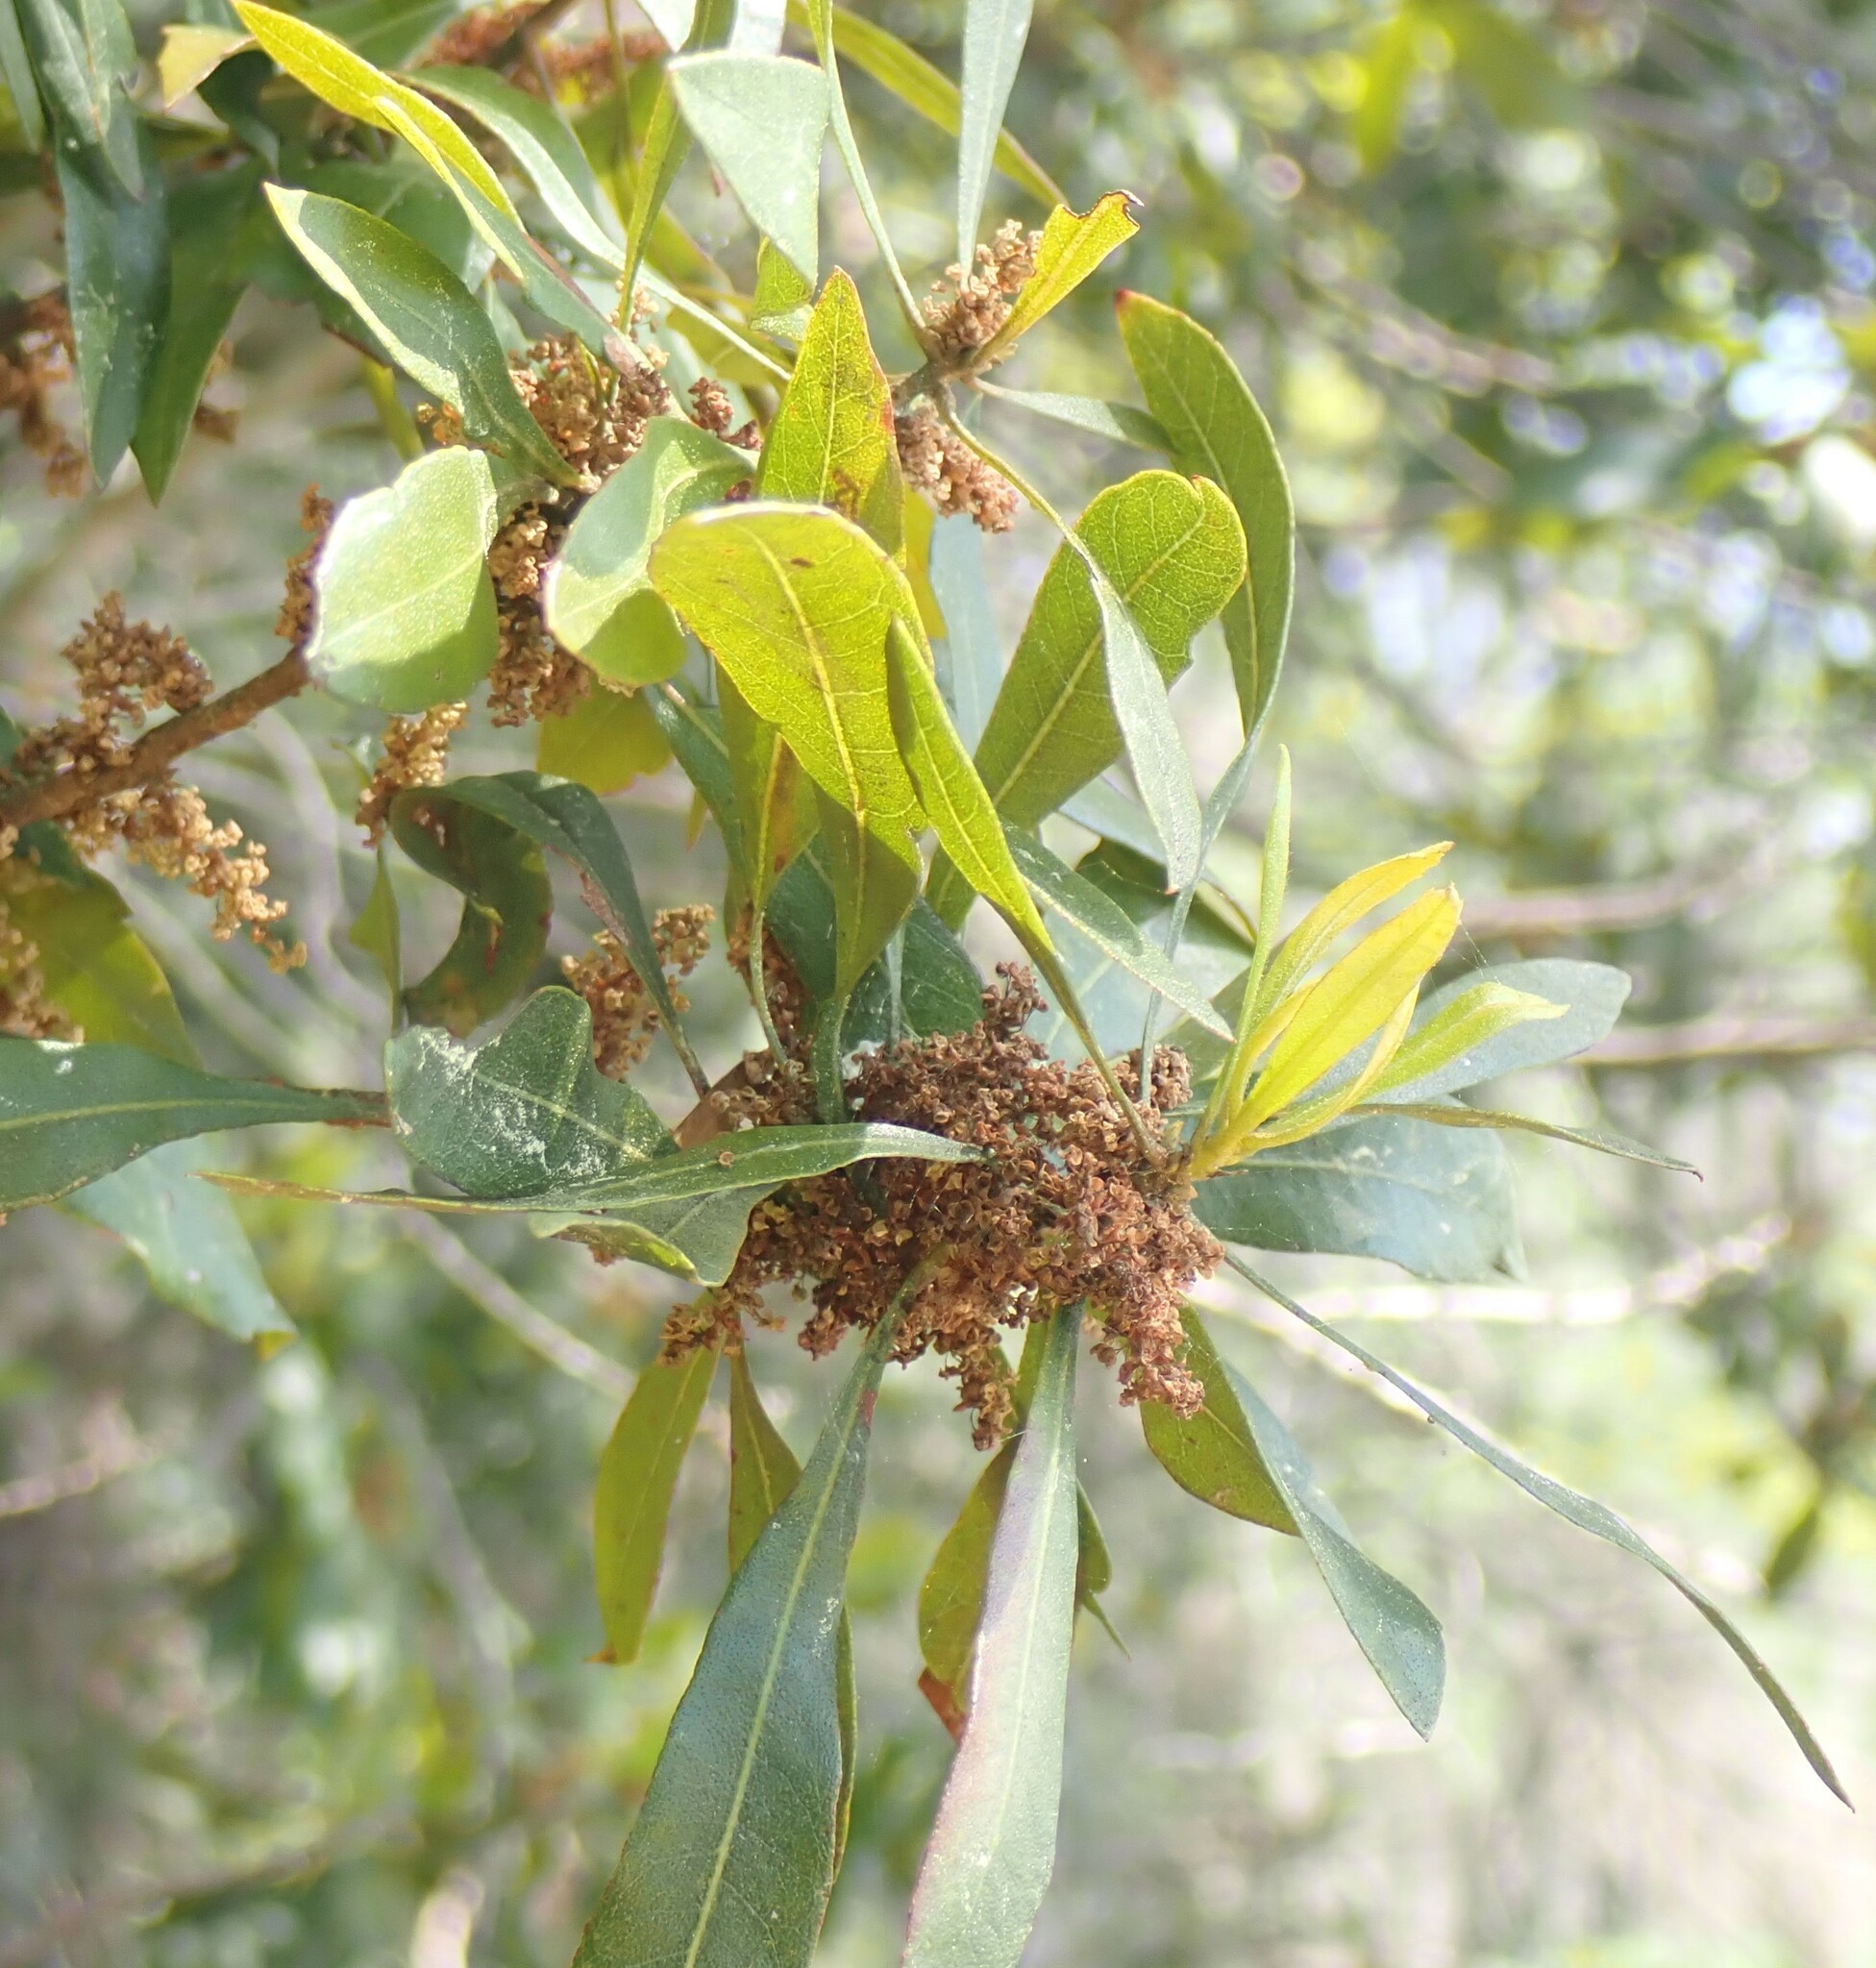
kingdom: Plantae
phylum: Tracheophyta
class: Magnoliopsida
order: Fagales
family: Myricaceae
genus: Morella
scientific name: Morella cerifera
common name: Wax myrtle
